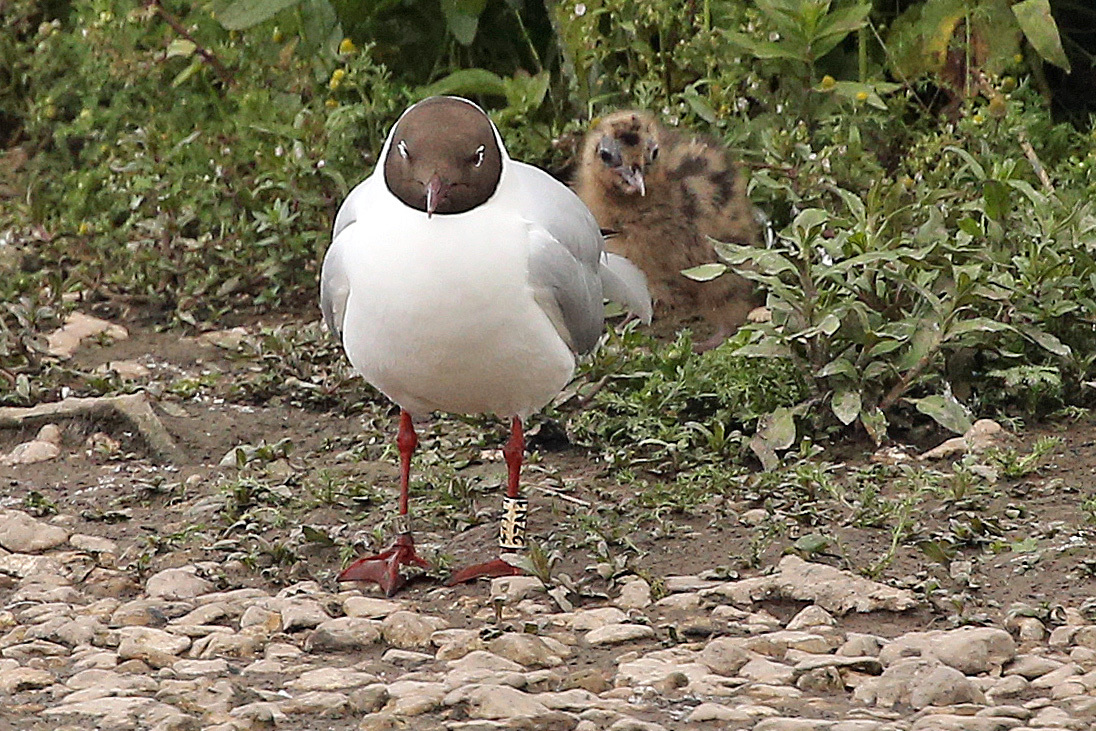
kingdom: Animalia
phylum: Chordata
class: Aves
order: Charadriiformes
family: Laridae
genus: Chroicocephalus
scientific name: Chroicocephalus ridibundus
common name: Black-headed gull
